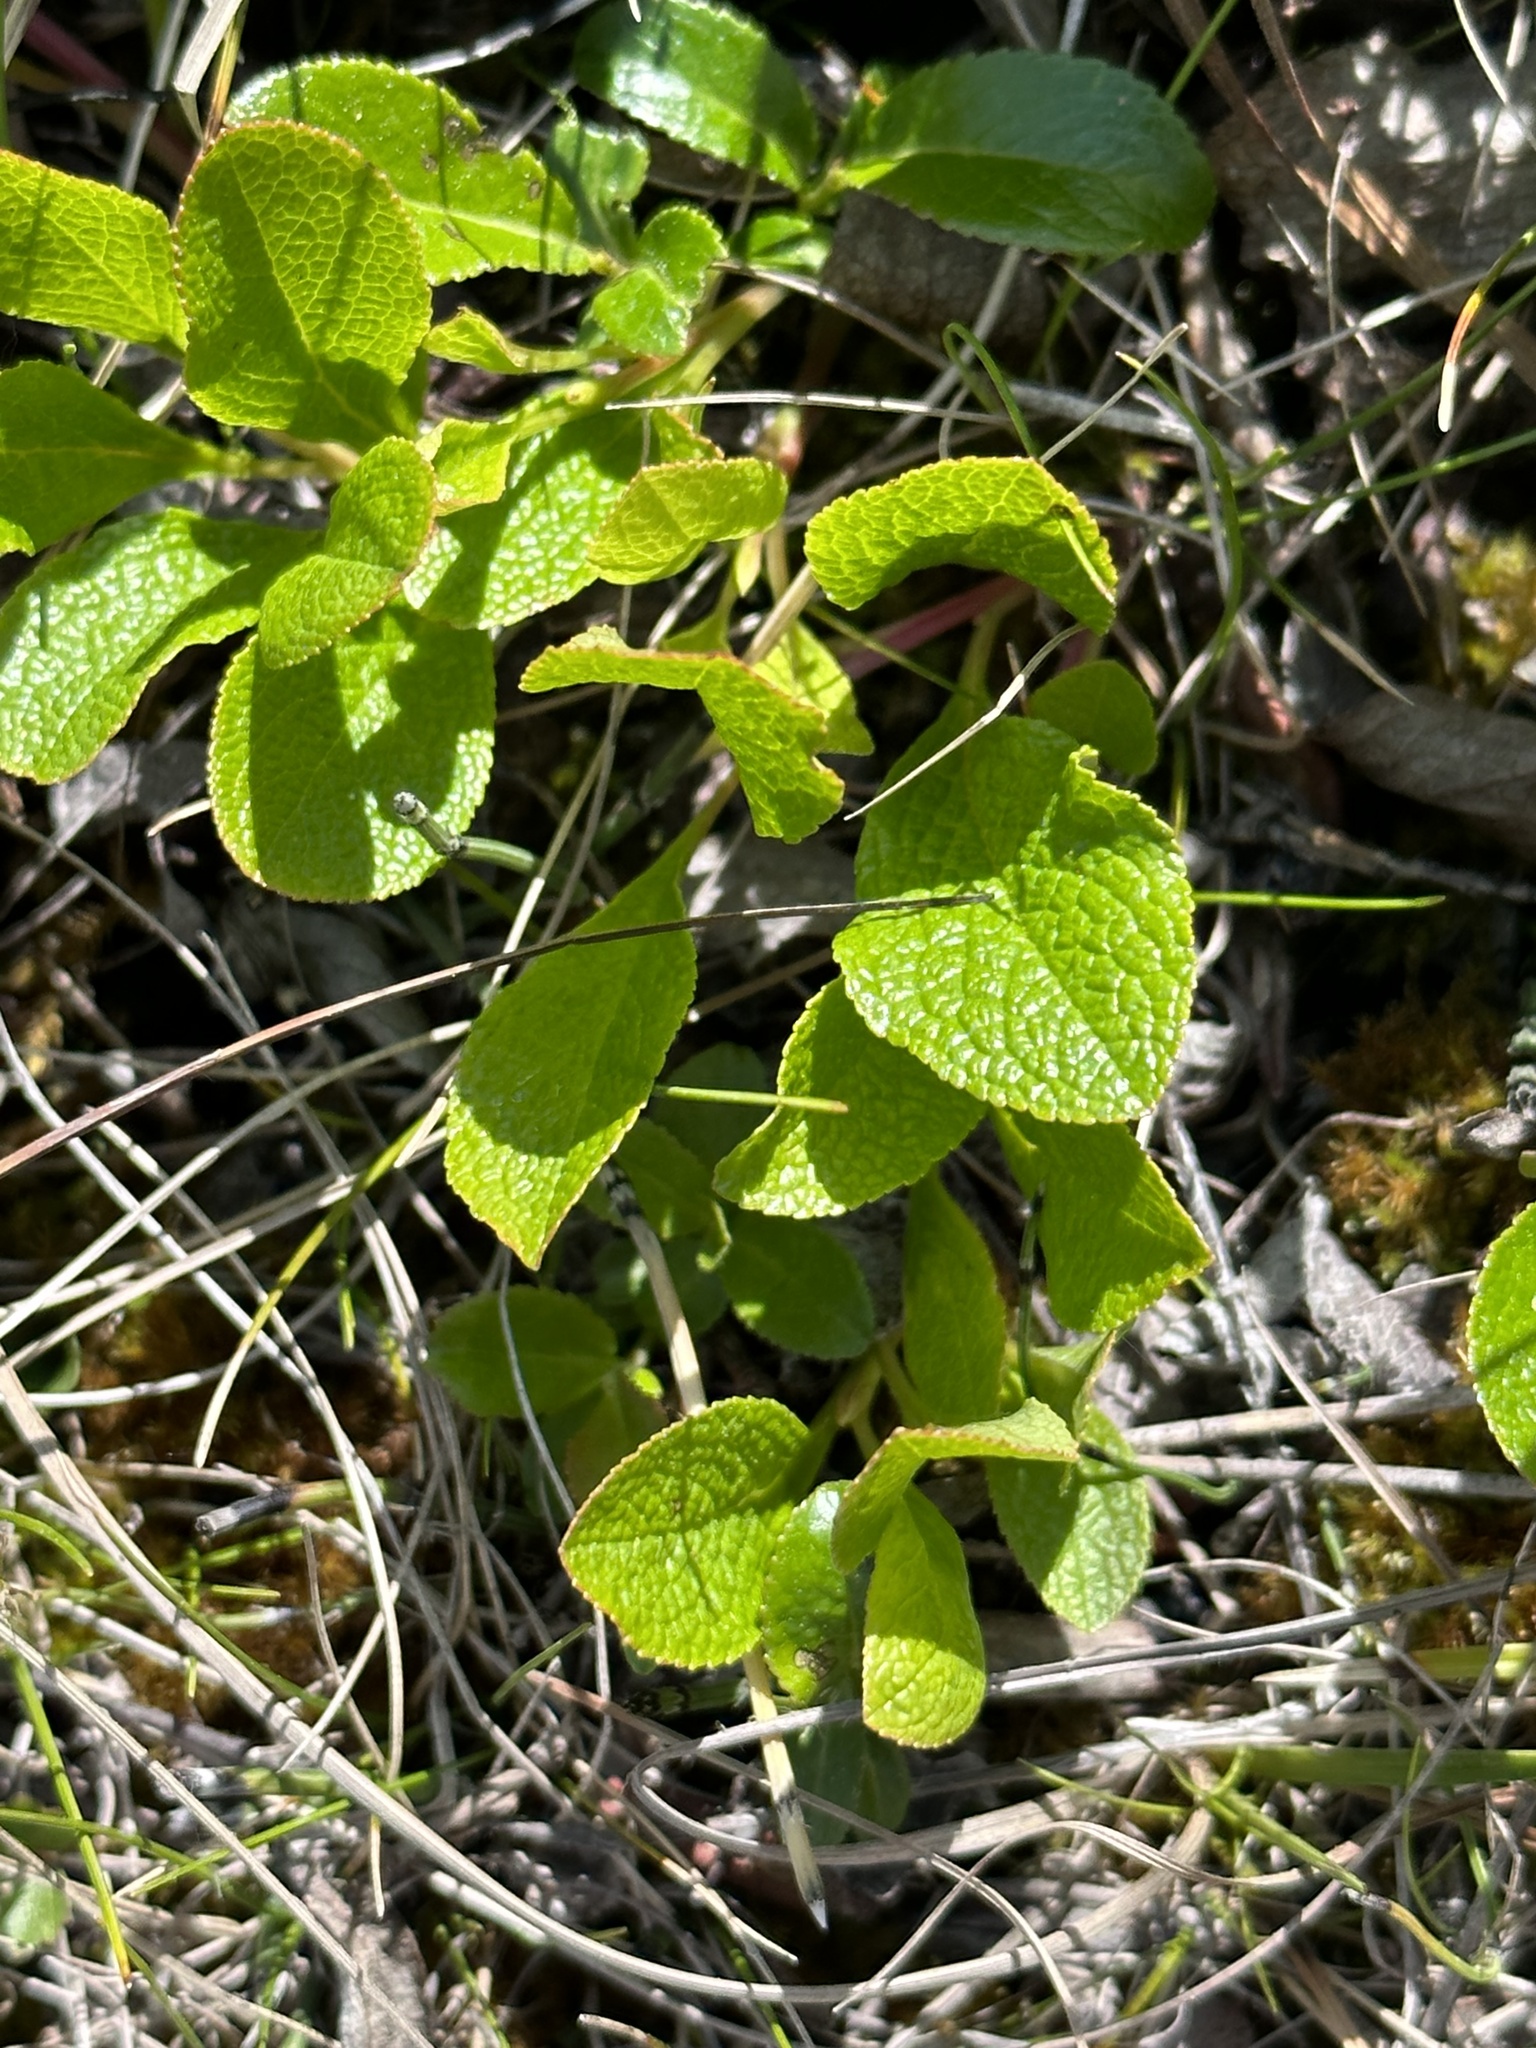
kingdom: Plantae
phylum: Tracheophyta
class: Magnoliopsida
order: Ericales
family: Ericaceae
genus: Arctostaphylos
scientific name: Arctostaphylos rubra
